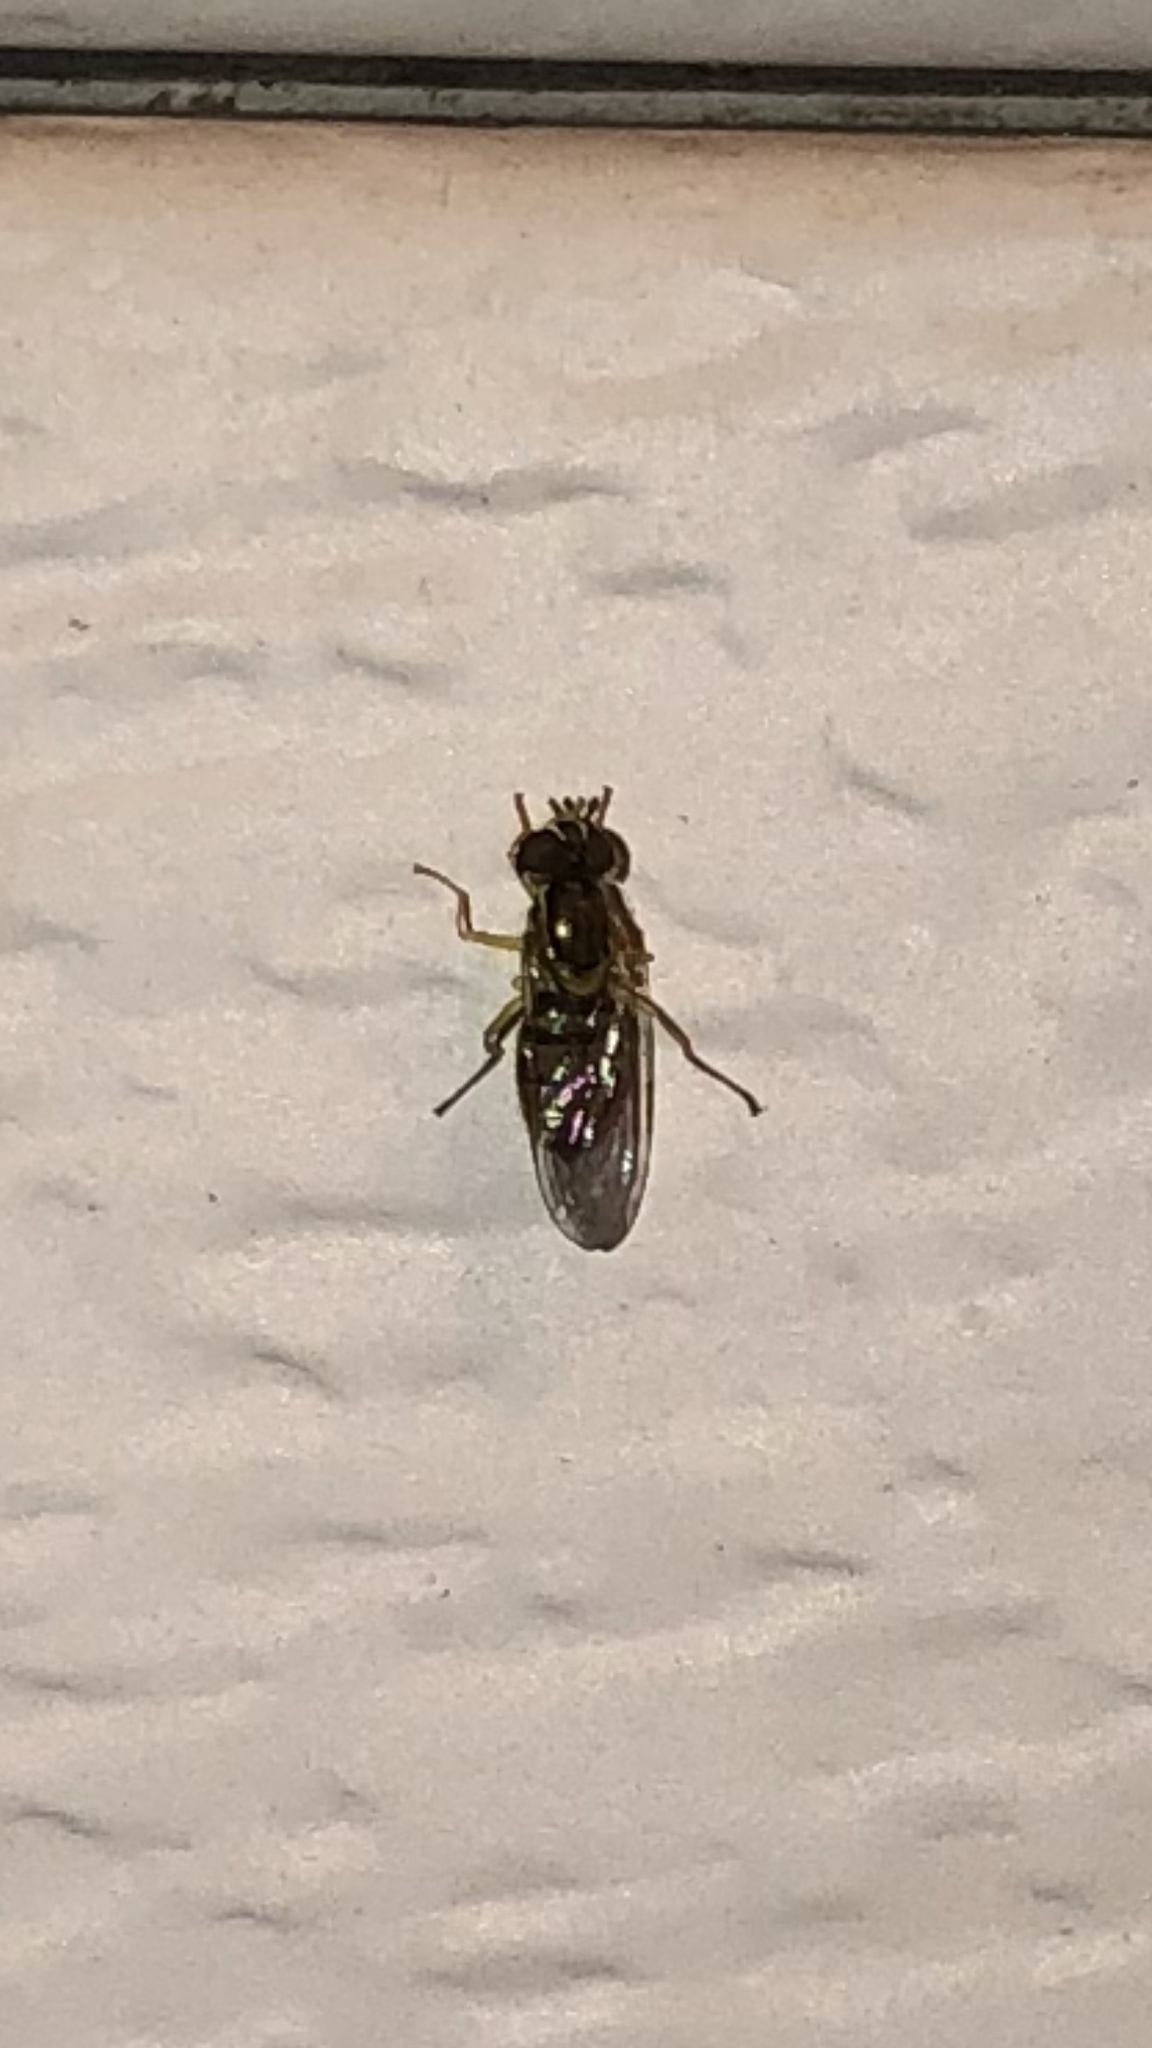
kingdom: Animalia
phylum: Arthropoda
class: Insecta
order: Diptera
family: Syrphidae
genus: Toxomerus
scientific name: Toxomerus marginatus
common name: Syrphid fly
